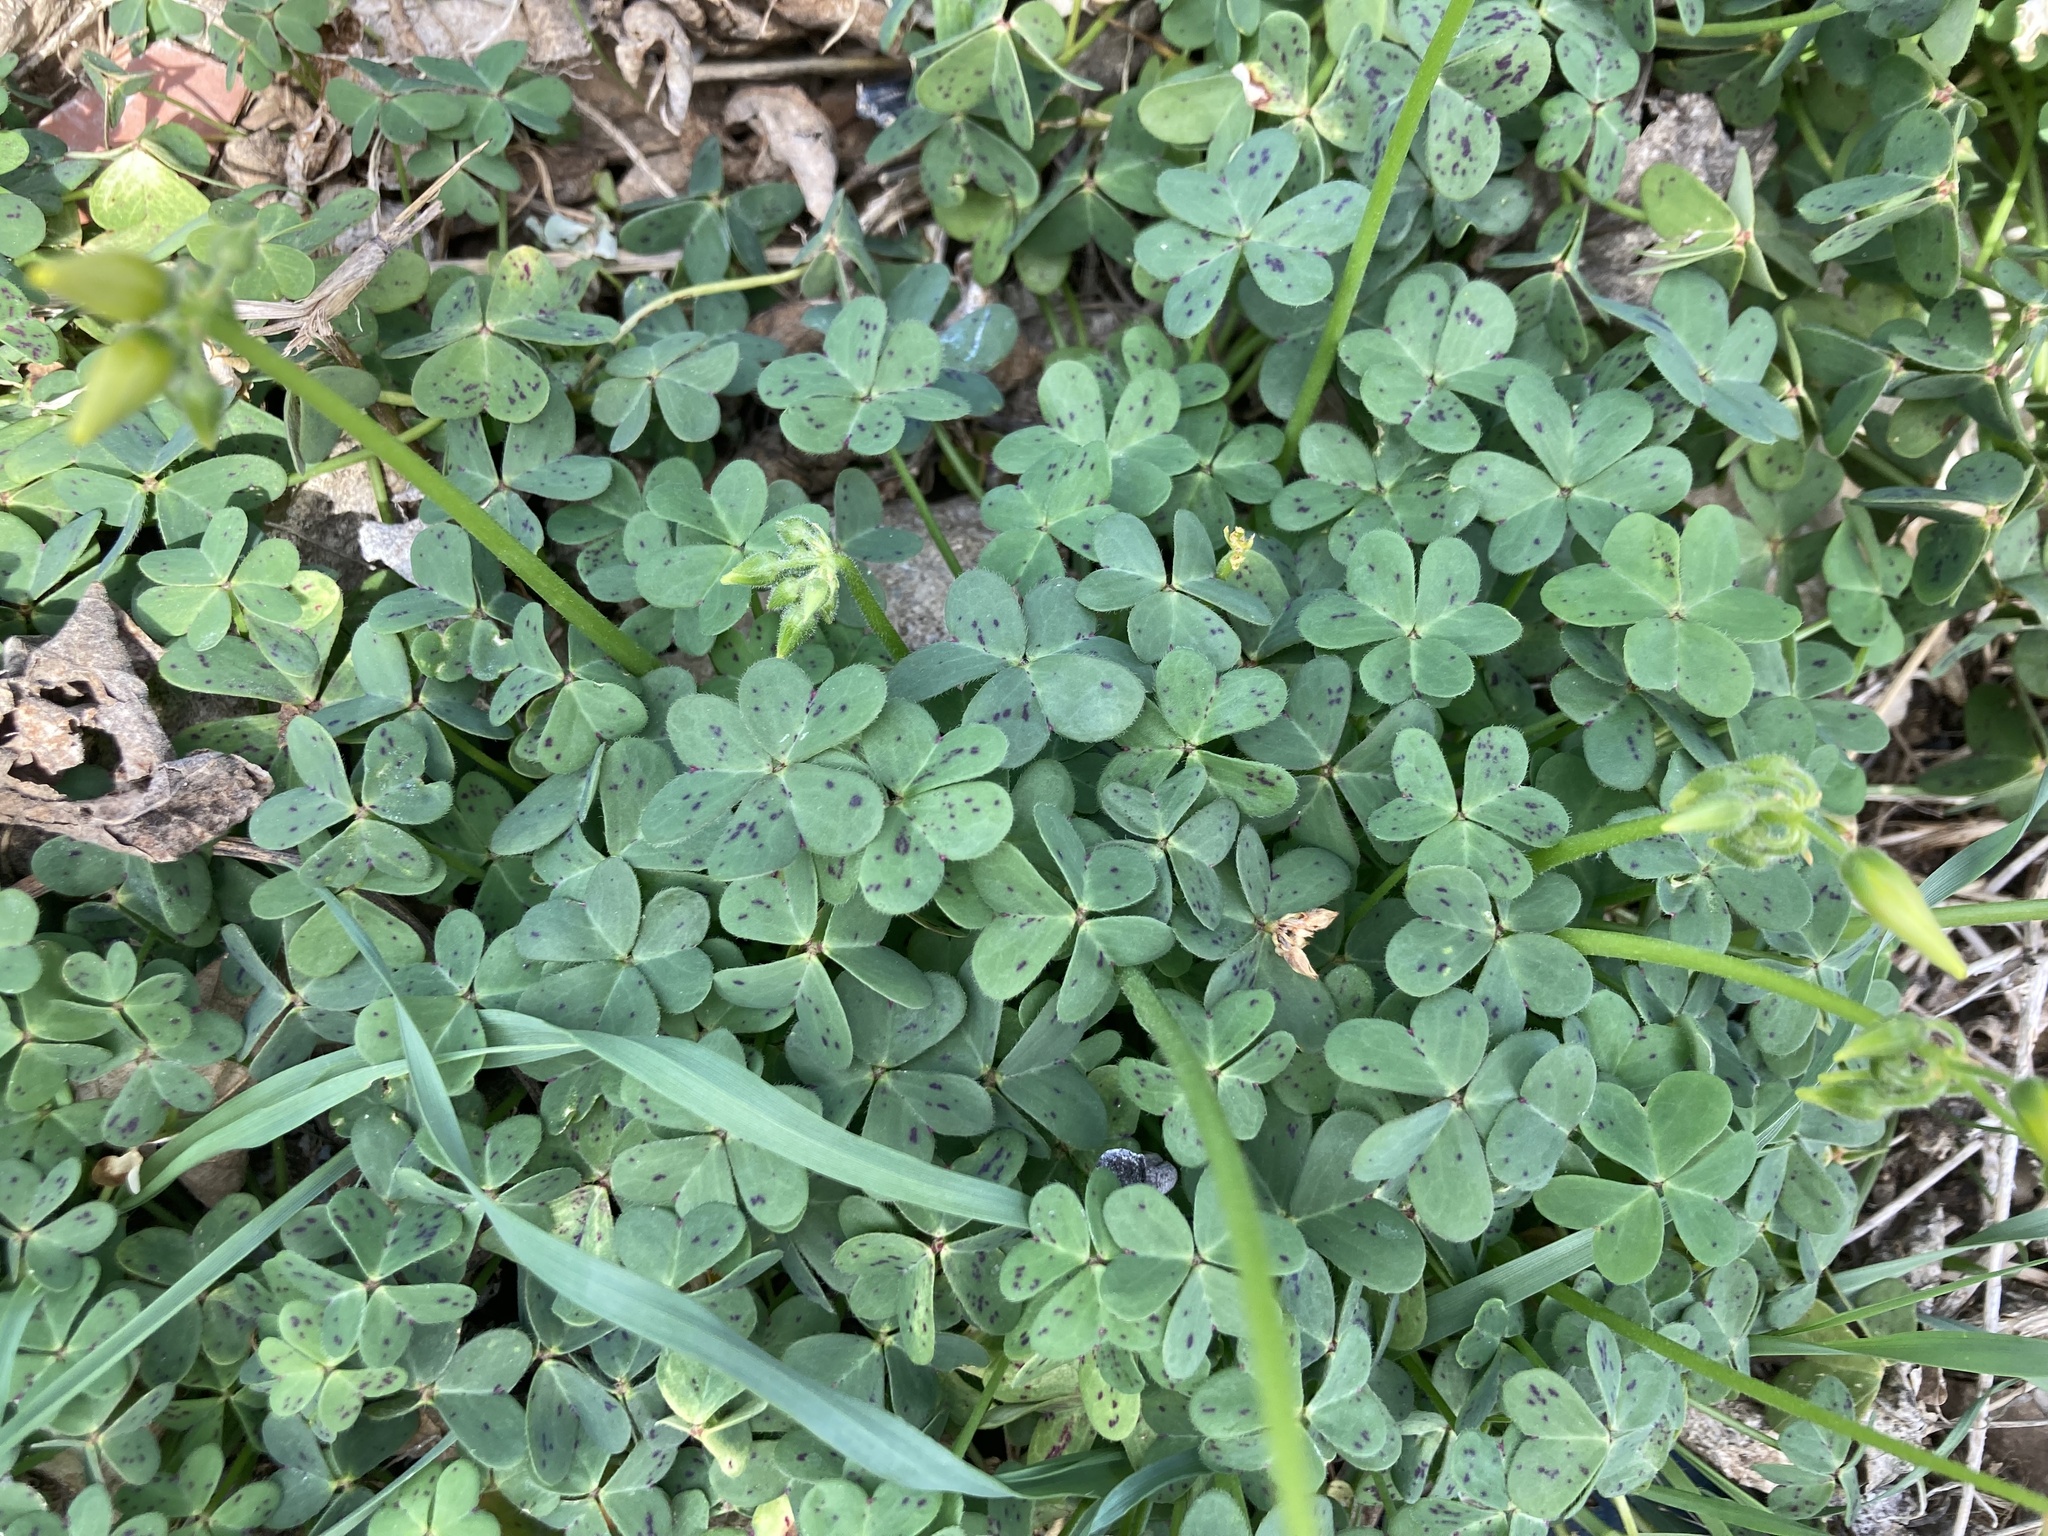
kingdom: Plantae
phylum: Tracheophyta
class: Magnoliopsida
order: Oxalidales
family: Oxalidaceae
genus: Oxalis
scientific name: Oxalis pes-caprae
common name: Bermuda-buttercup
